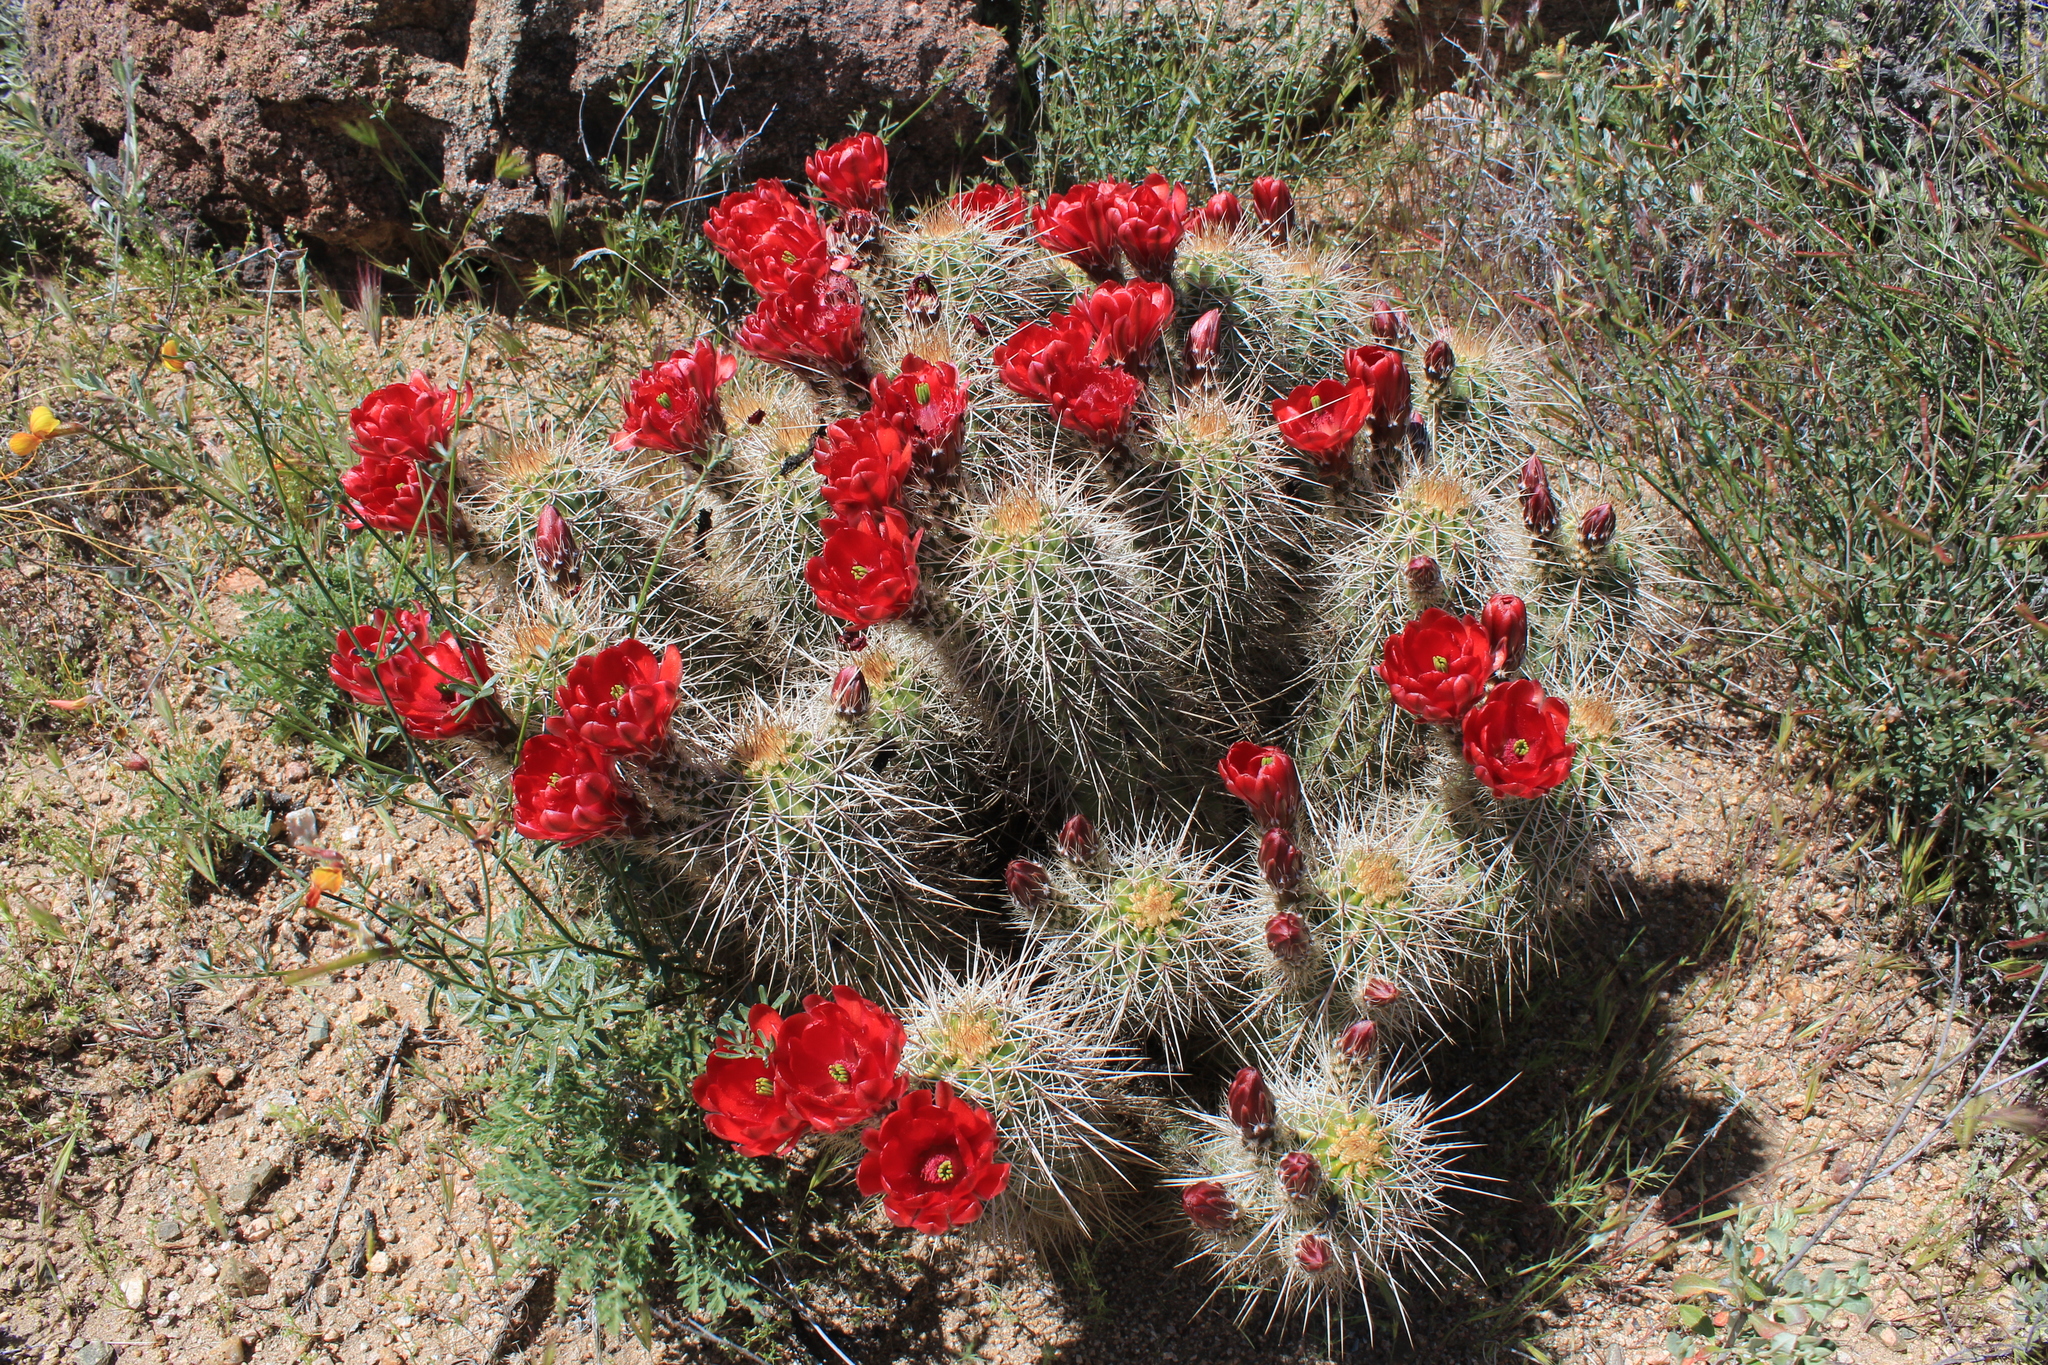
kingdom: Plantae
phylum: Tracheophyta
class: Magnoliopsida
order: Caryophyllales
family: Cactaceae
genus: Echinocereus
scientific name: Echinocereus yavapaiensis
